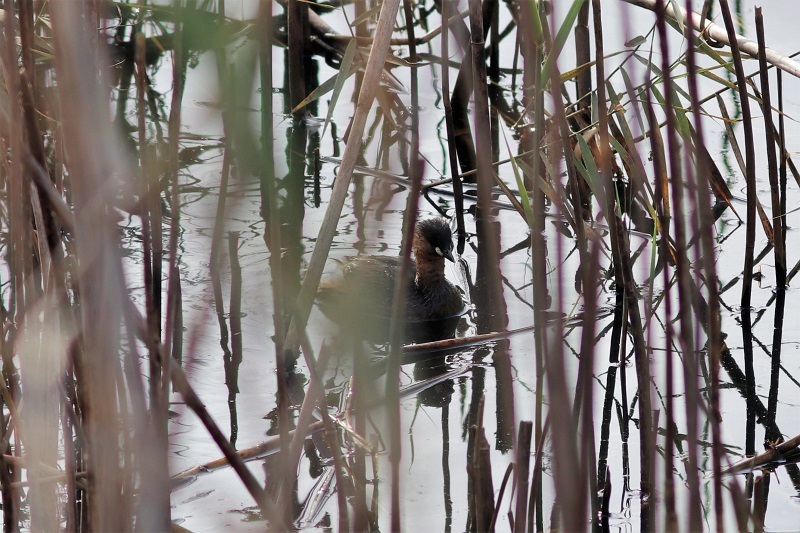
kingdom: Animalia
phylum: Chordata
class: Aves
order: Podicipediformes
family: Podicipedidae
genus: Tachybaptus
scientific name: Tachybaptus ruficollis
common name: Little grebe
